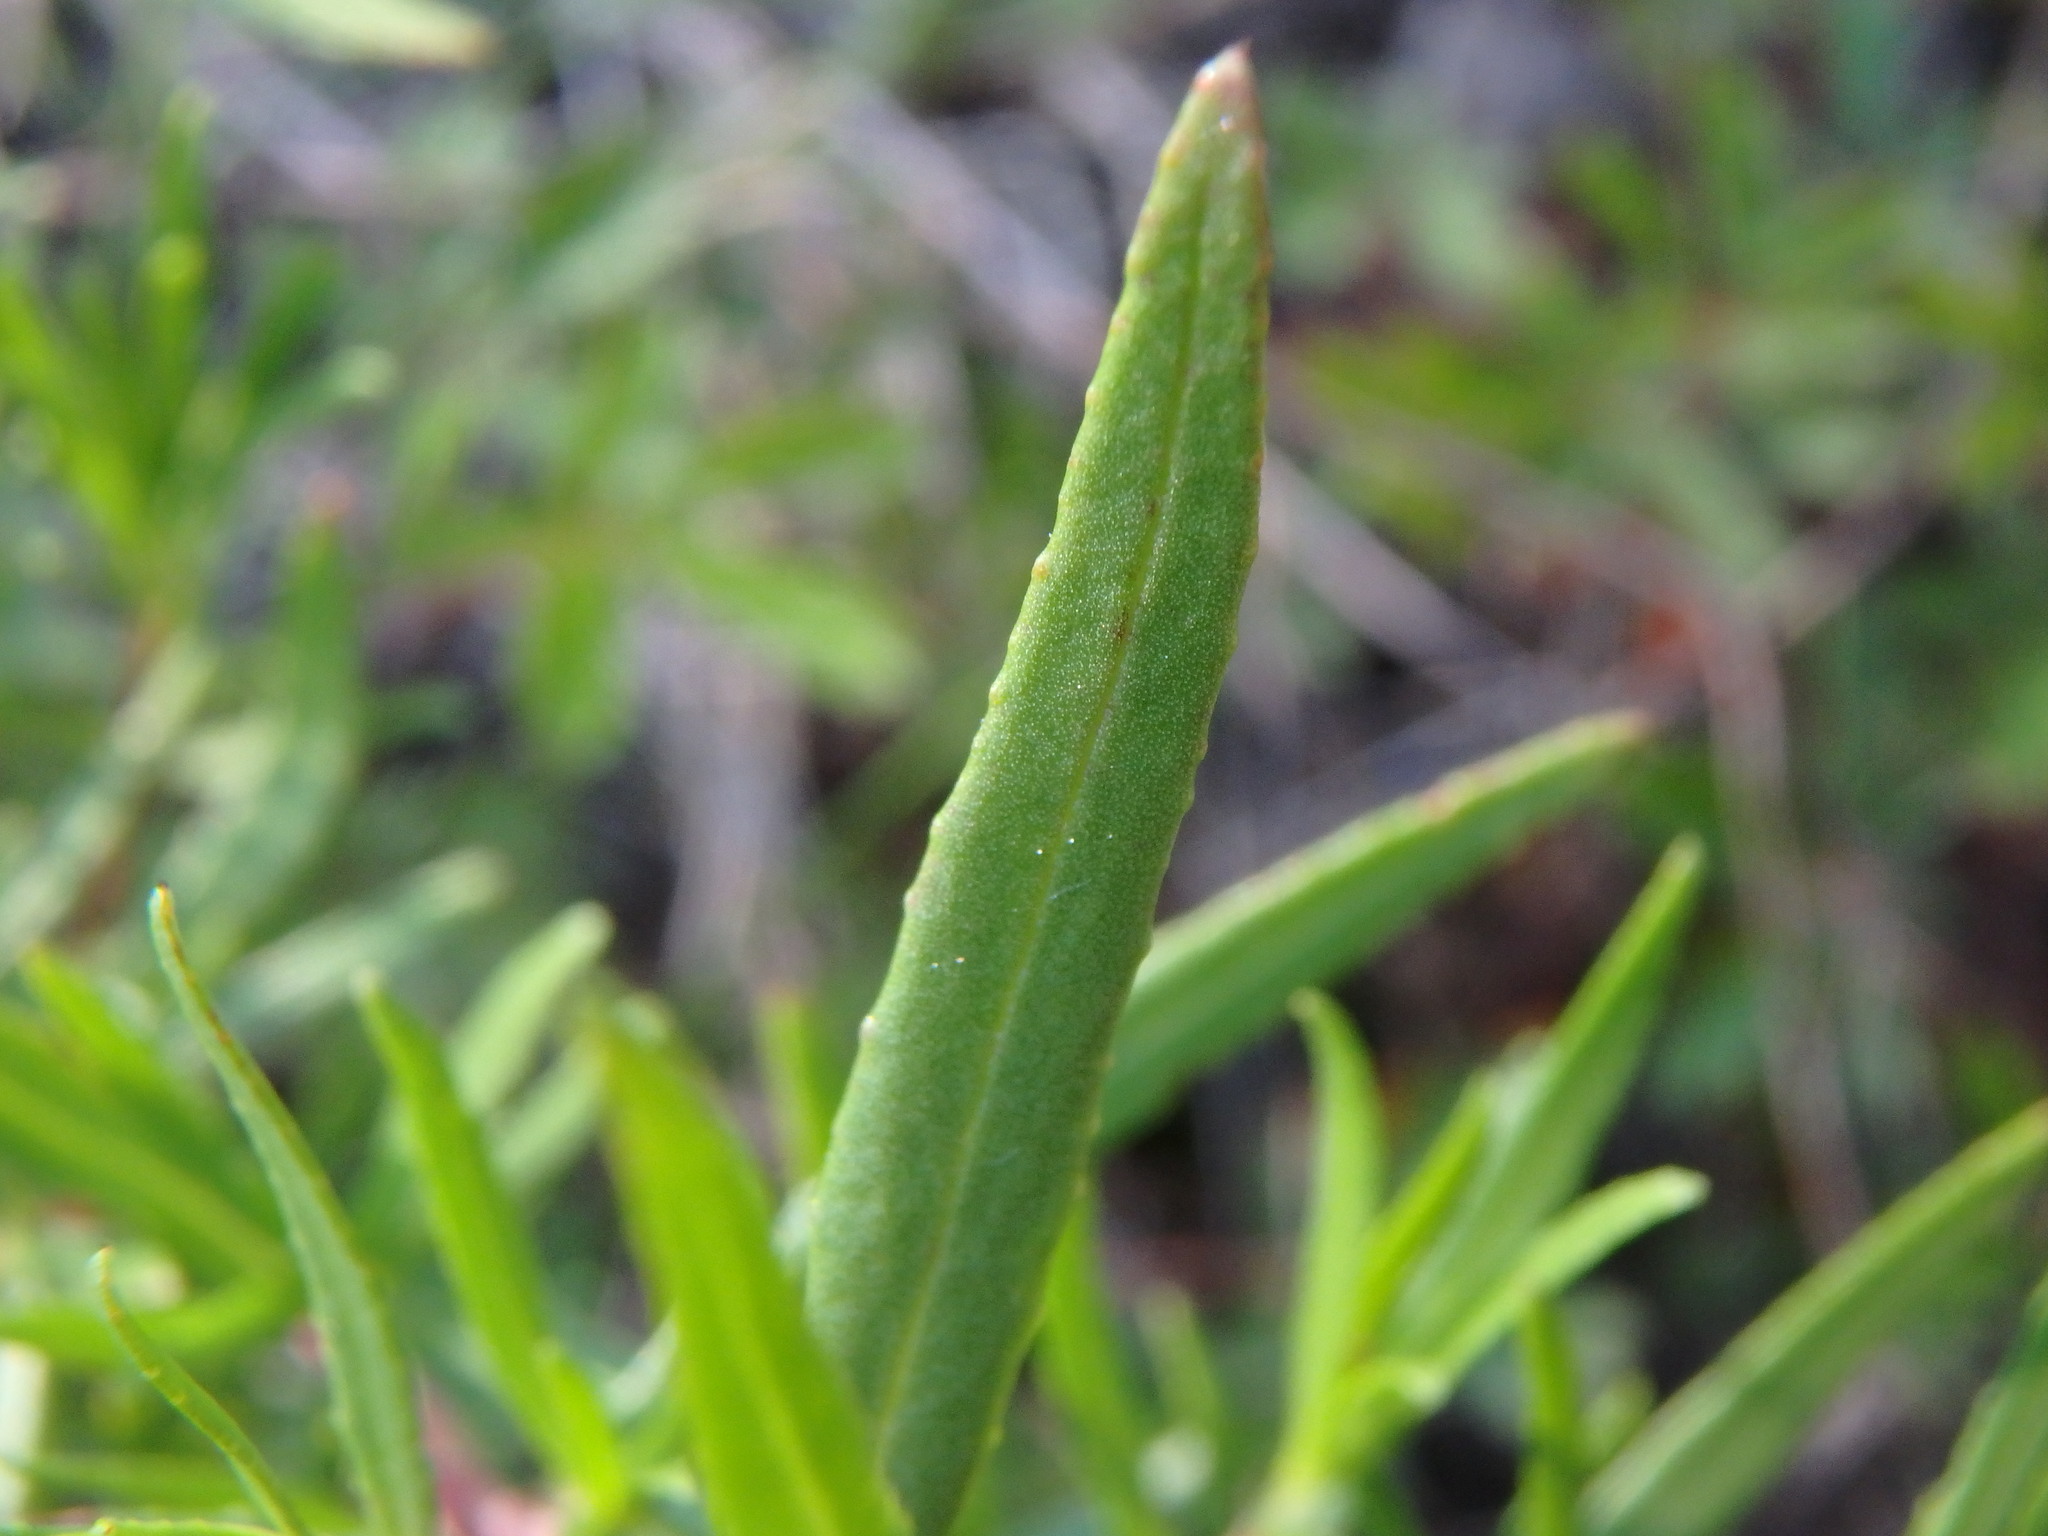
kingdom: Plantae
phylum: Tracheophyta
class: Magnoliopsida
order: Myrtales
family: Onagraceae
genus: Chamaenerion
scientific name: Chamaenerion fleischeri
